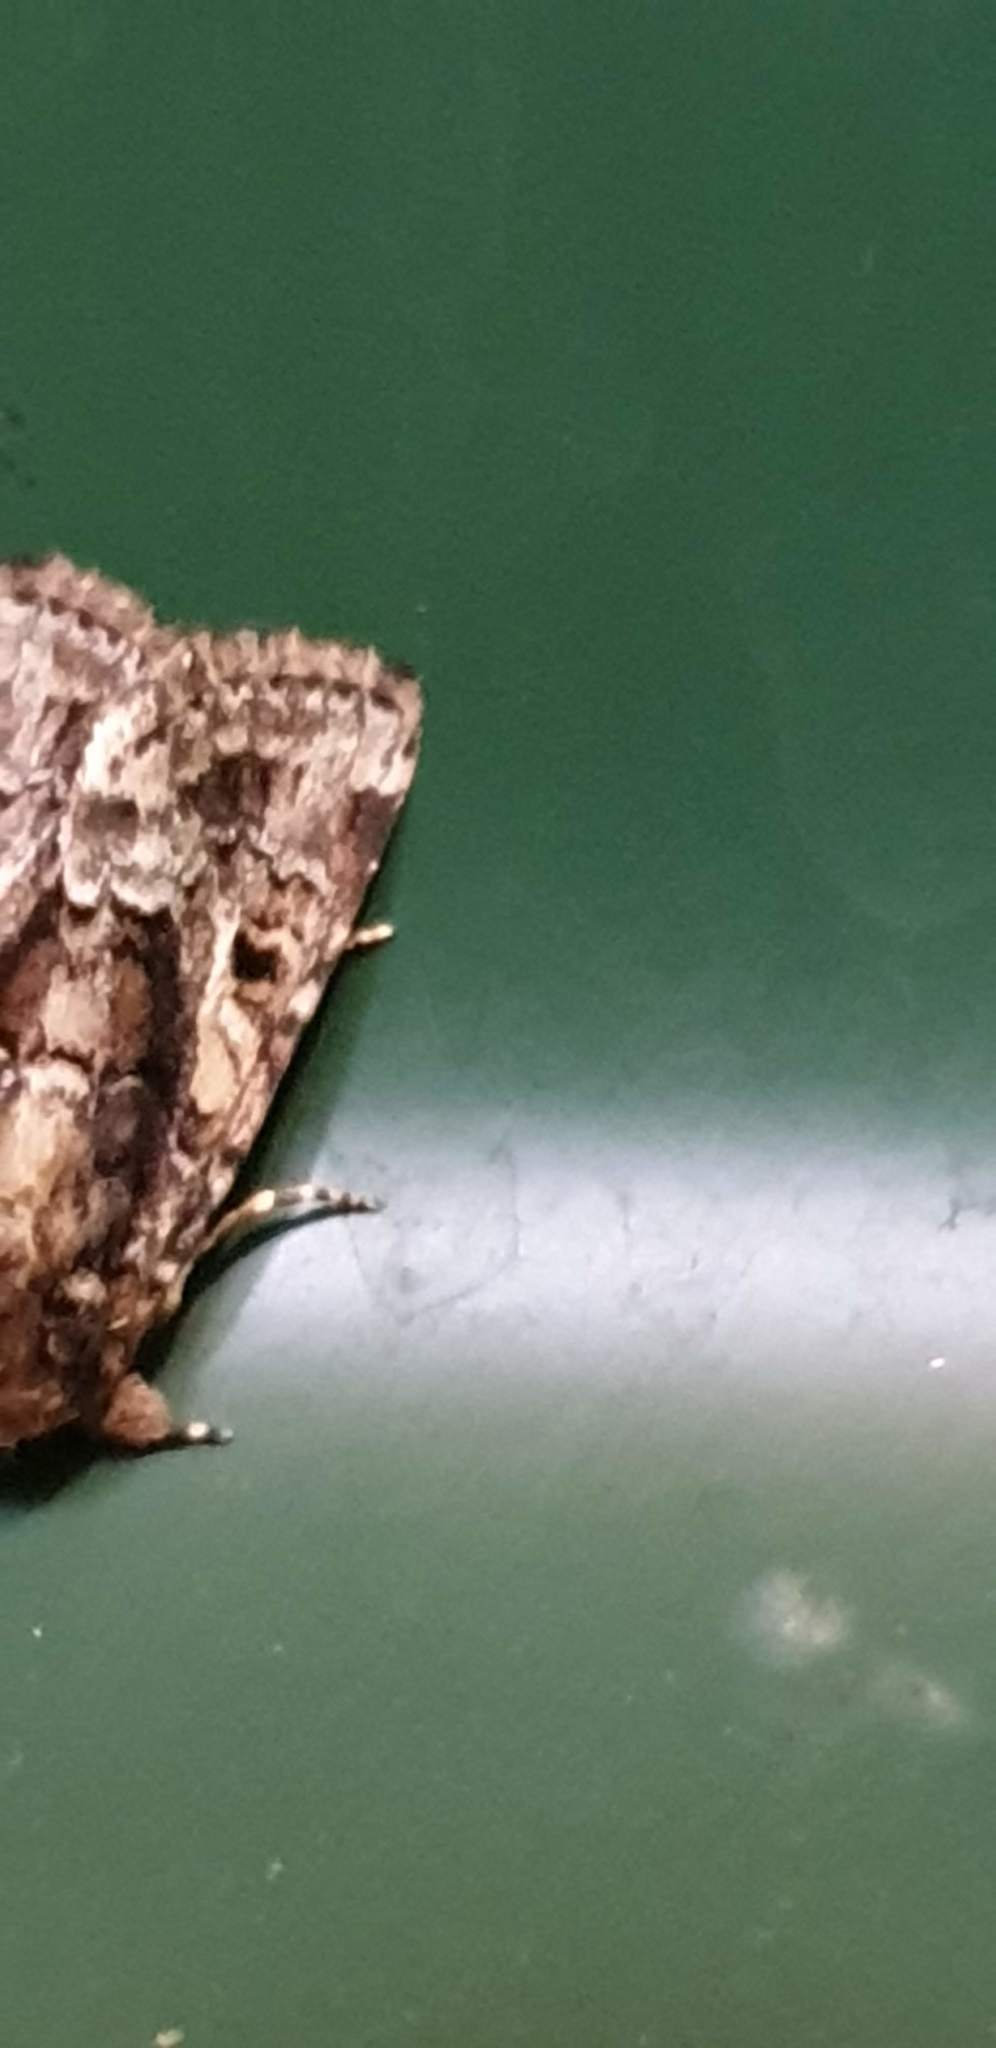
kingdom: Animalia
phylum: Arthropoda
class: Insecta
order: Lepidoptera
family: Noctuidae
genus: Spodoptera
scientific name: Spodoptera umbraculata
